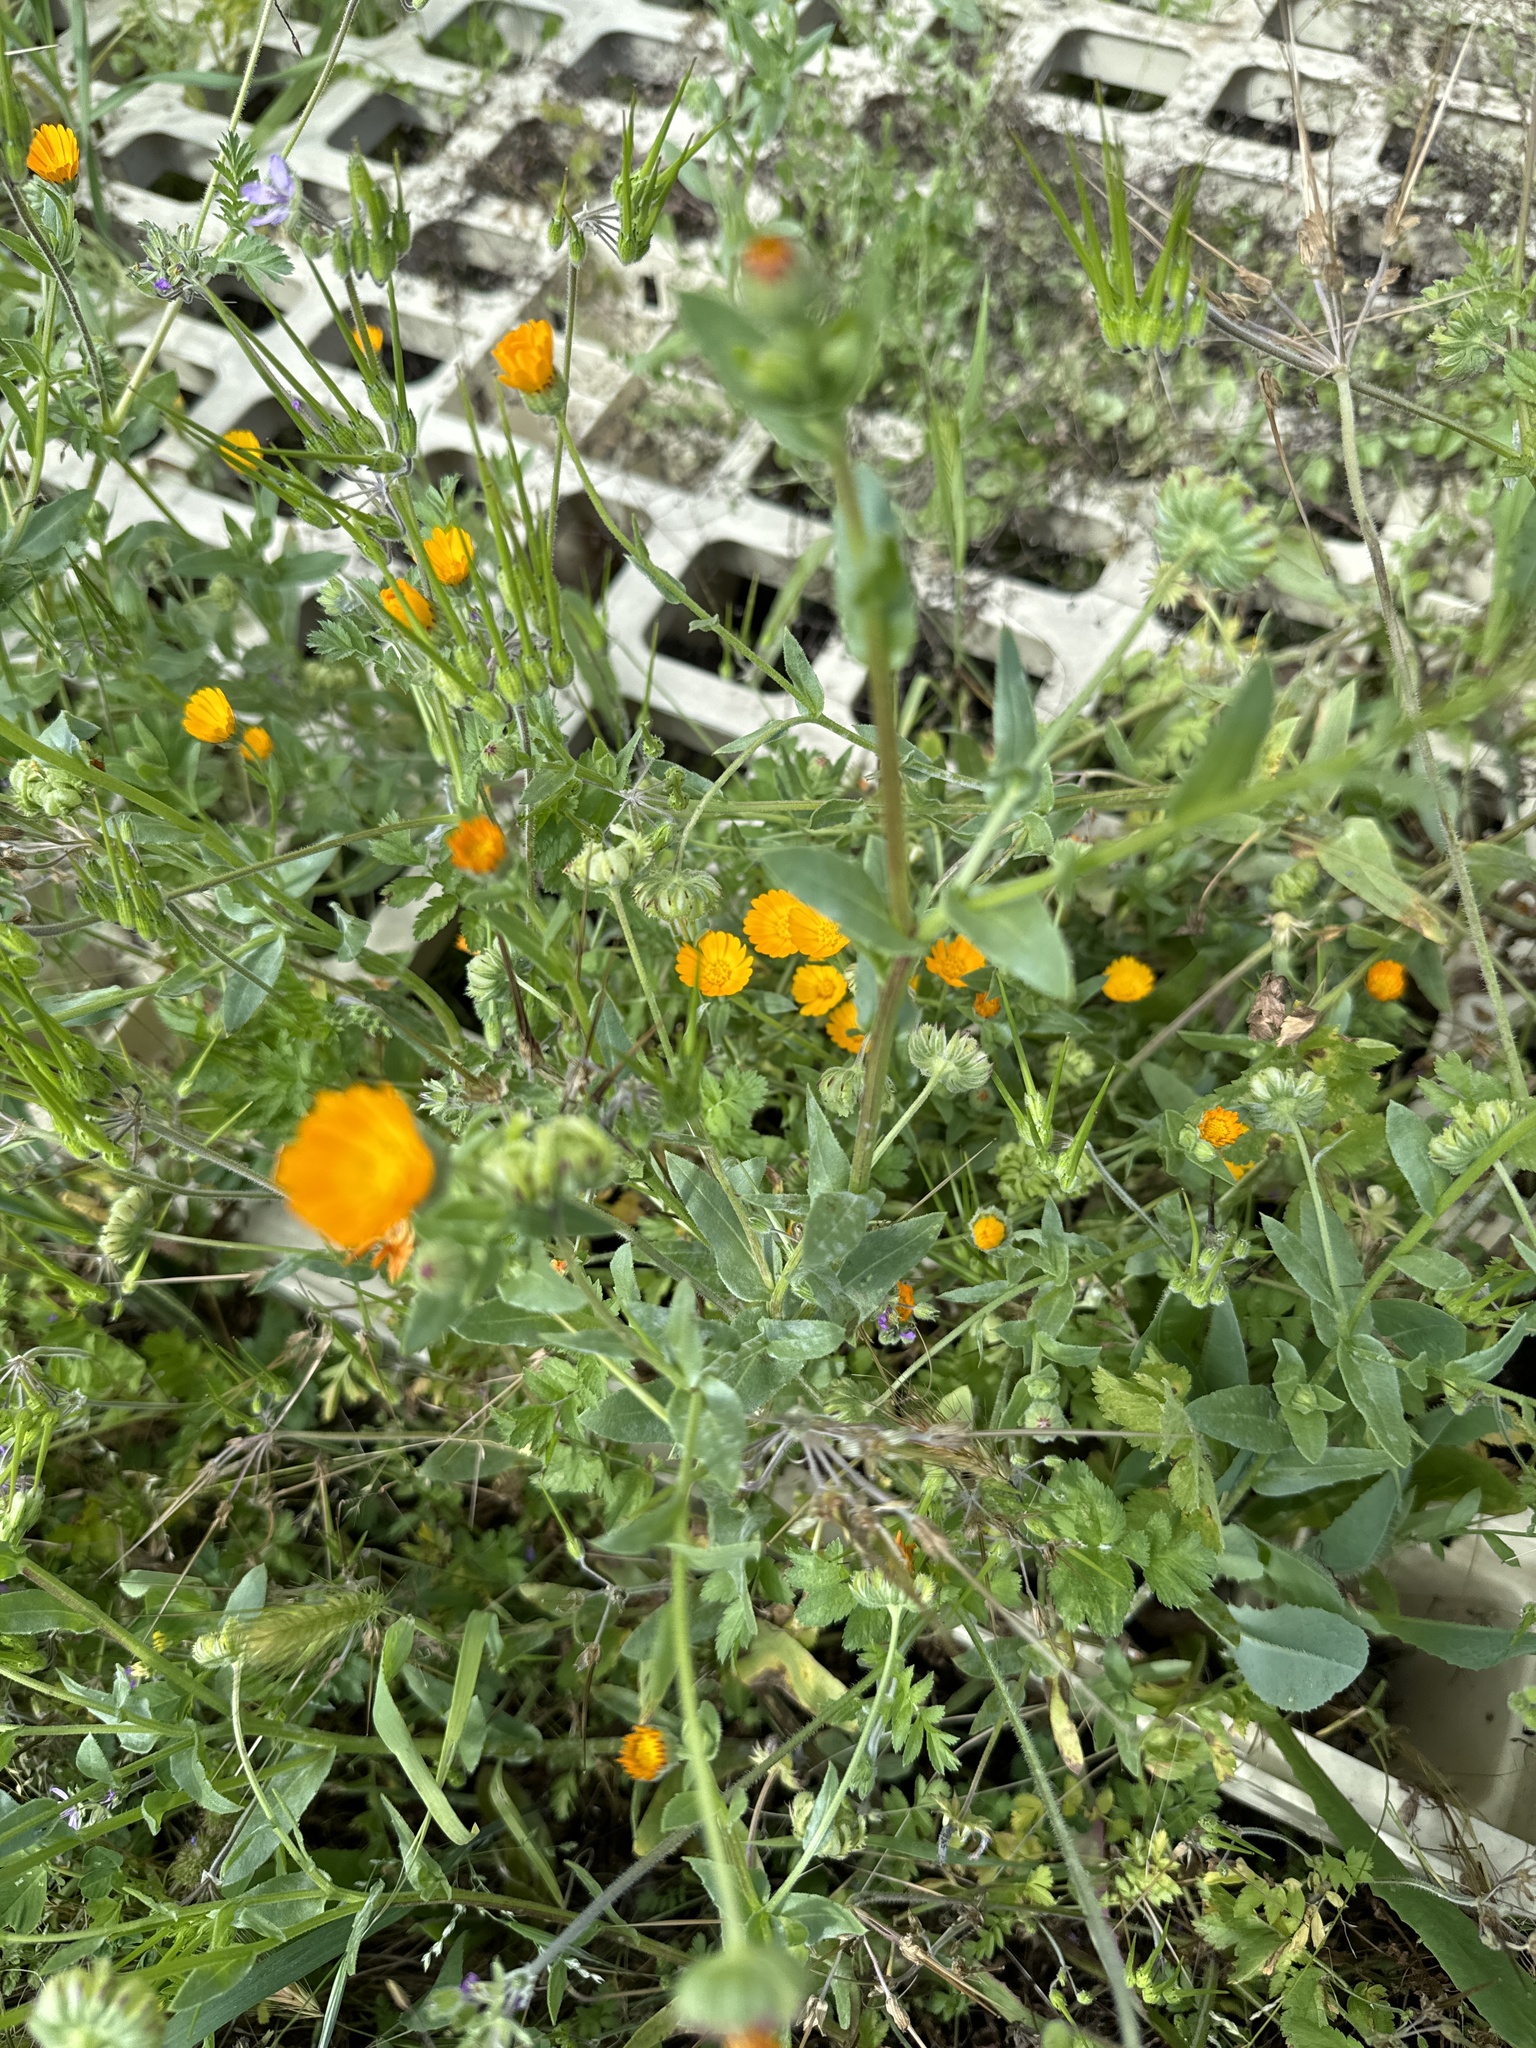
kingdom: Plantae
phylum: Tracheophyta
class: Magnoliopsida
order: Asterales
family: Asteraceae
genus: Calendula
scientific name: Calendula arvensis
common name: Field marigold
